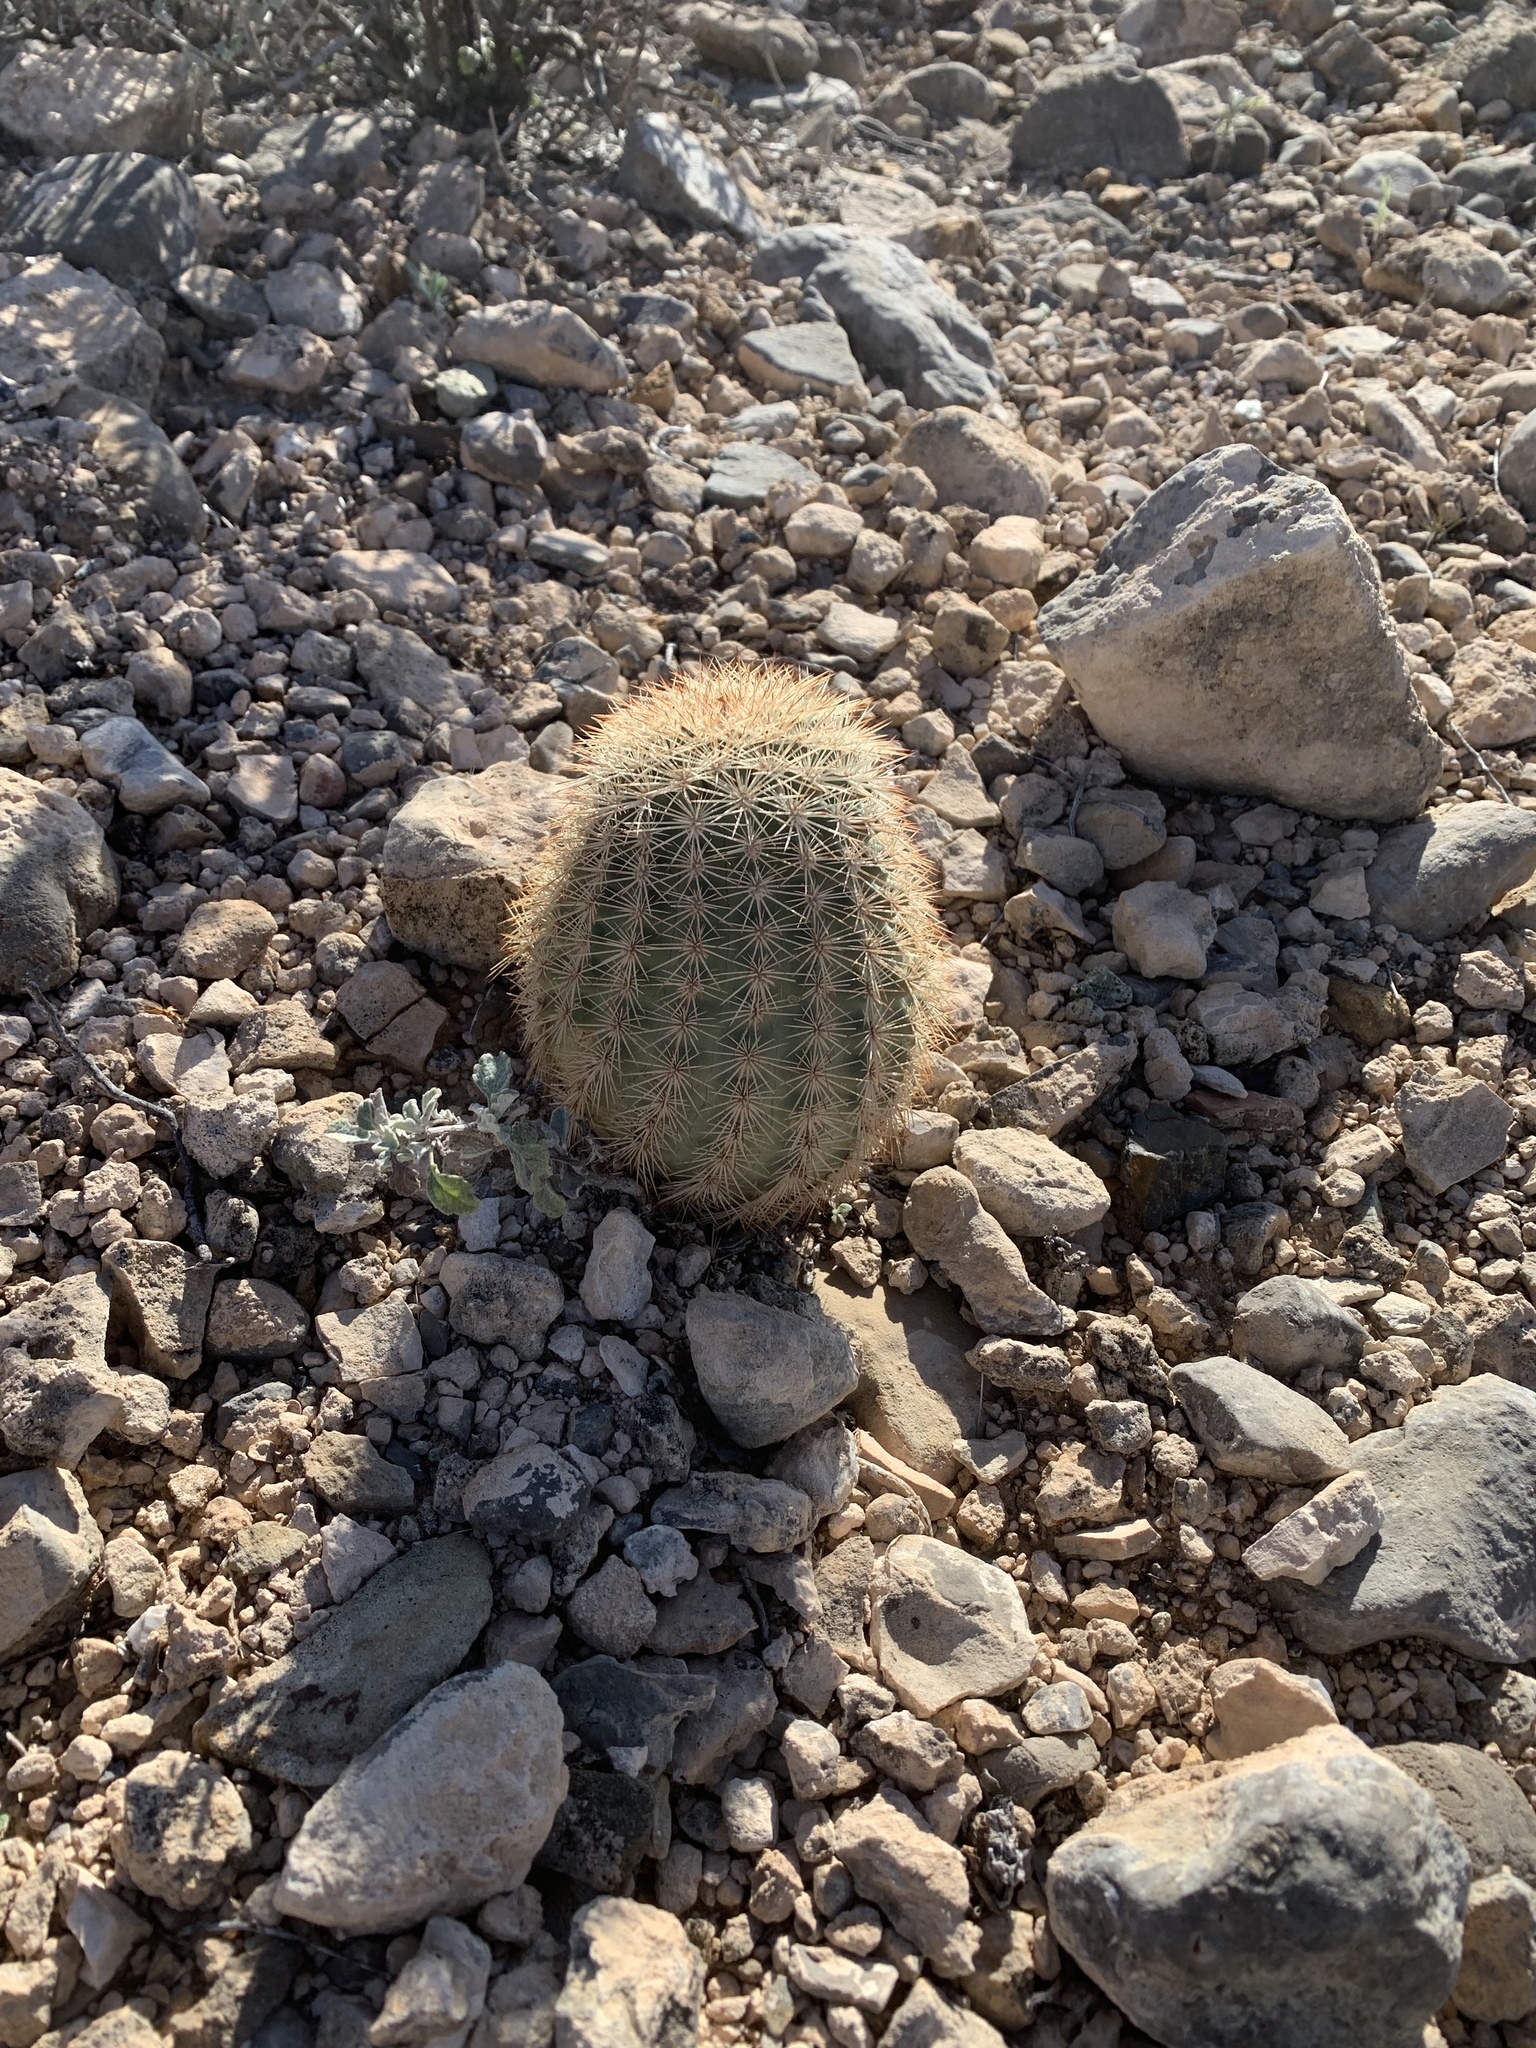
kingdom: Plantae
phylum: Tracheophyta
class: Magnoliopsida
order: Caryophyllales
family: Cactaceae
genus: Echinocereus
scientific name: Echinocereus dasyacanthus
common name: Spiny hedgehog cactus
